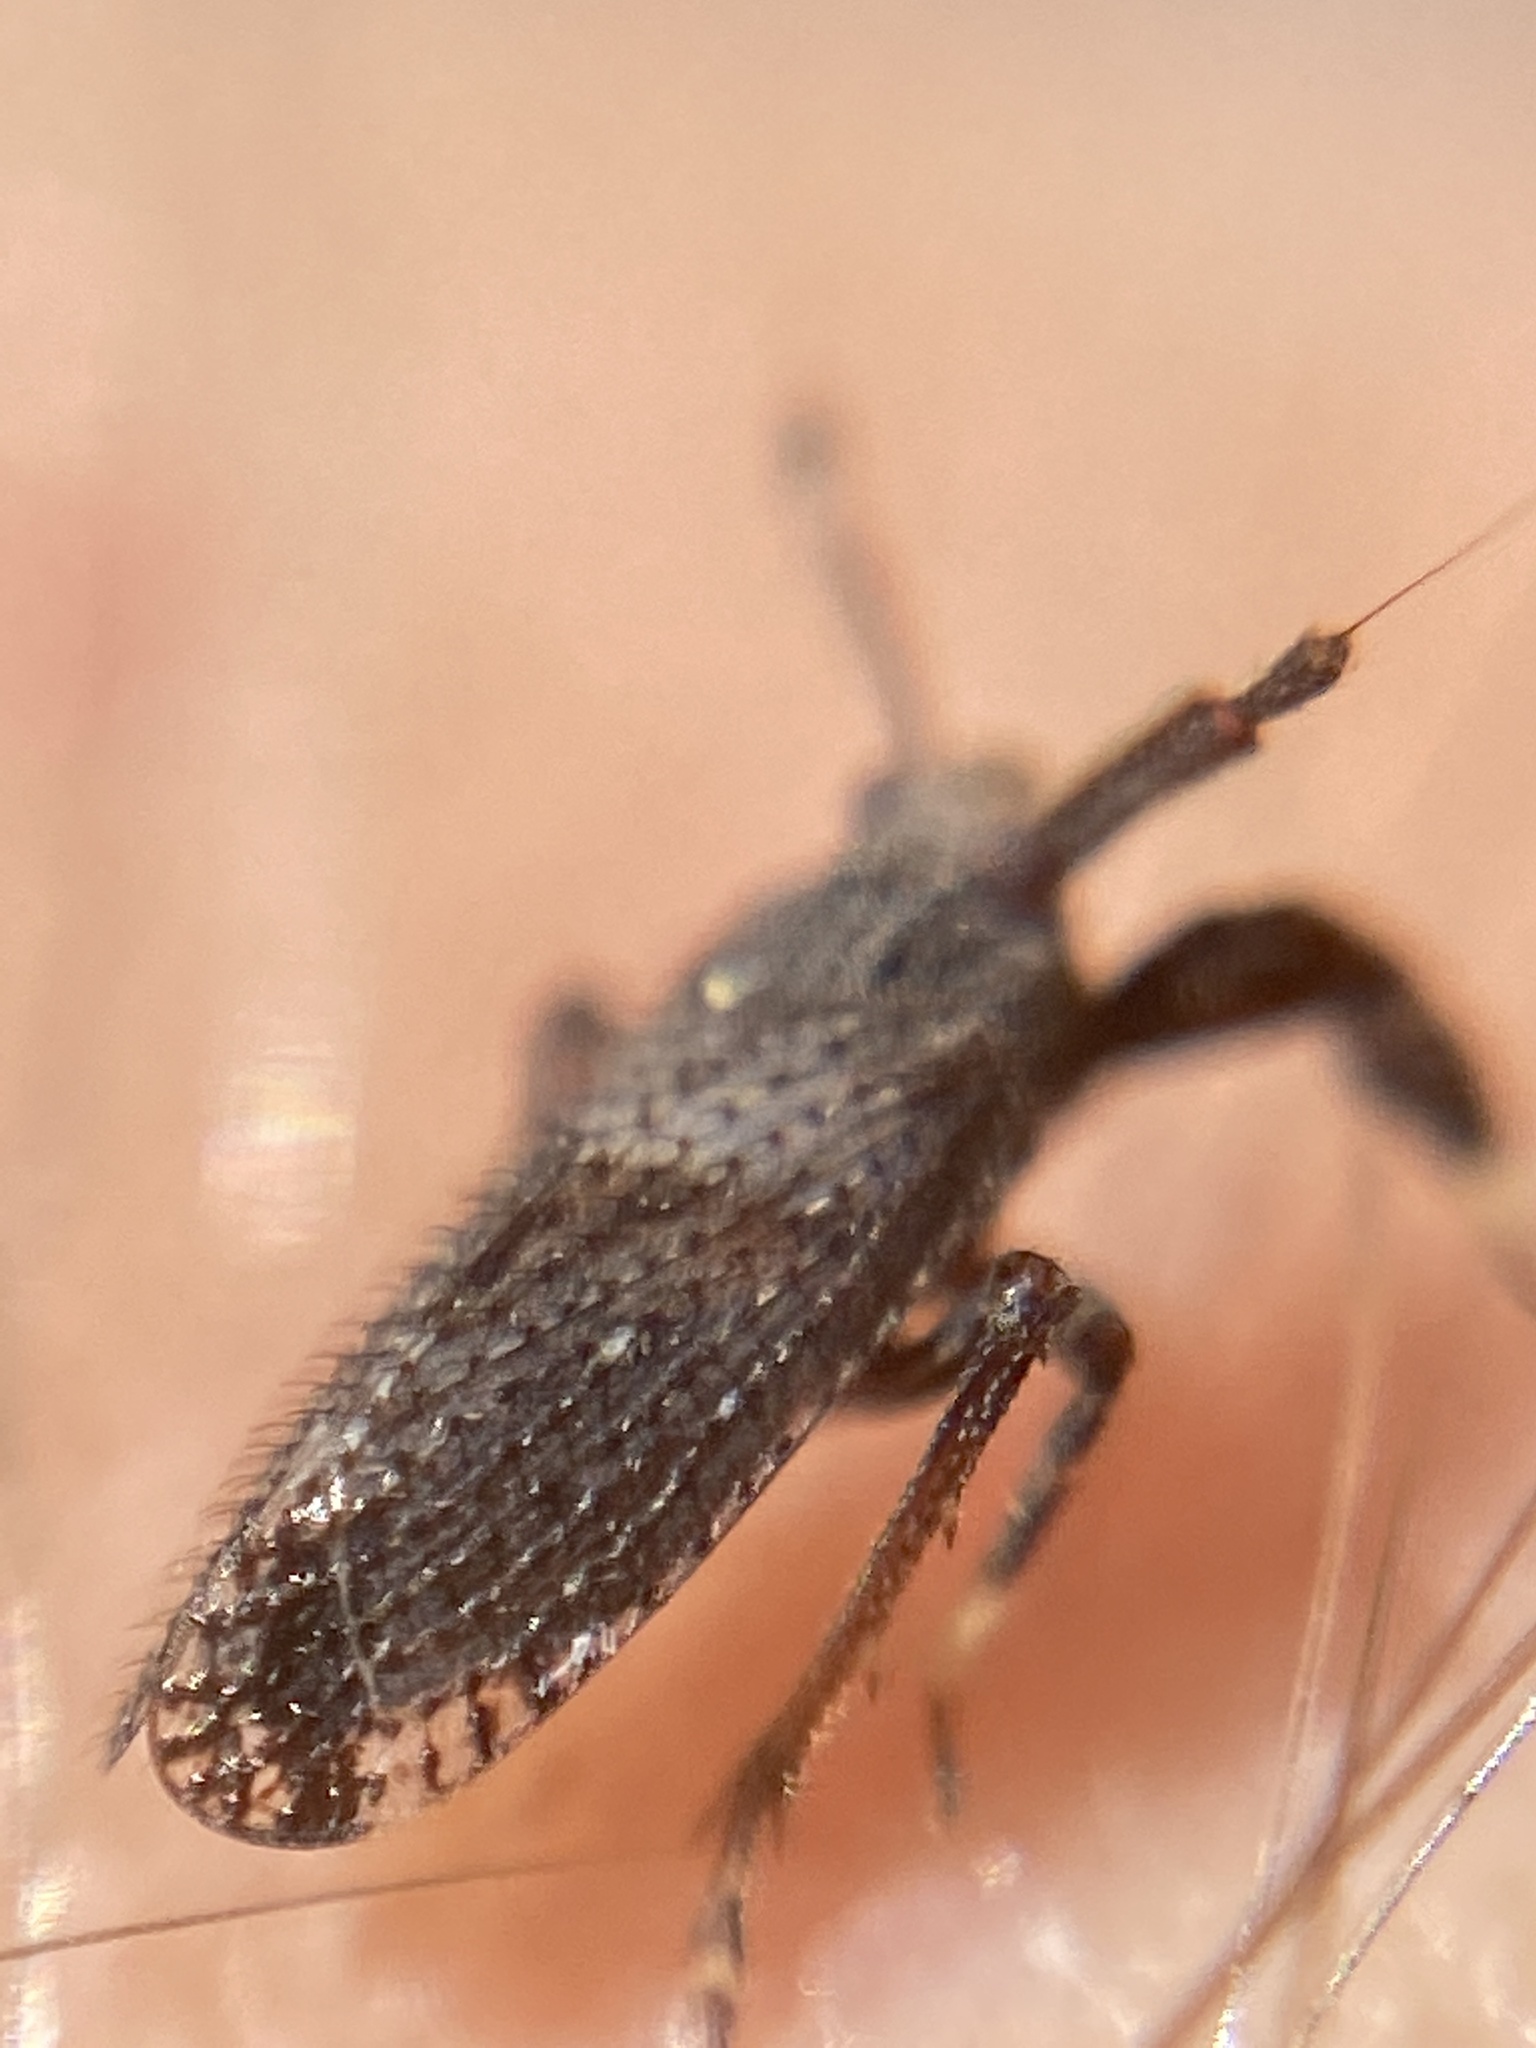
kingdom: Animalia
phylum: Arthropoda
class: Insecta
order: Hemiptera
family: Delphacidae
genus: Asiraca
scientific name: Asiraca clavicornis
